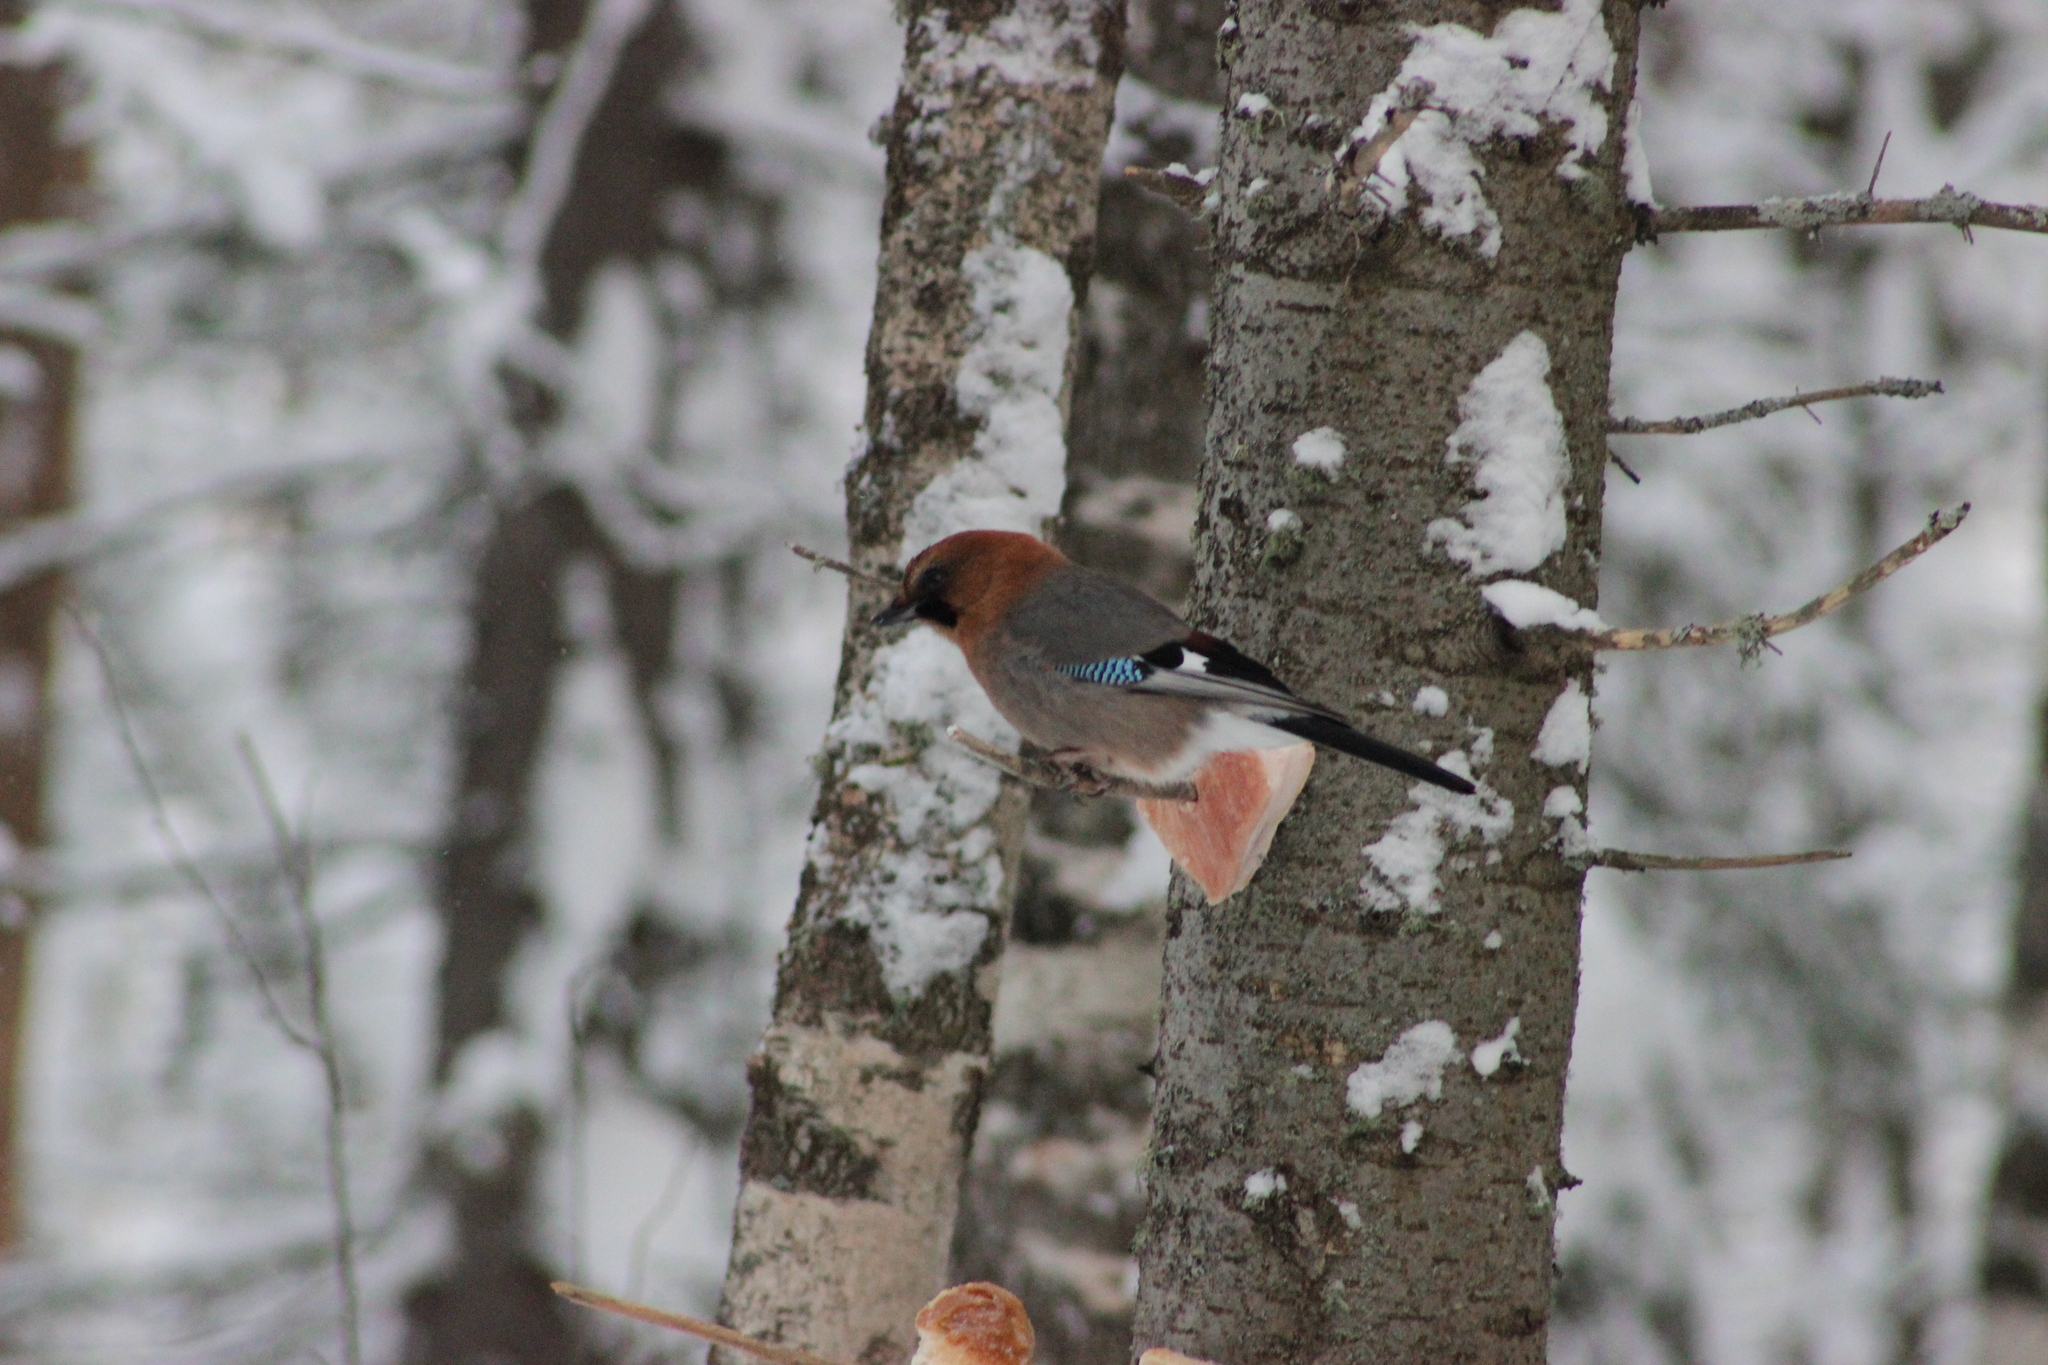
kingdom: Animalia
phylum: Chordata
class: Aves
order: Passeriformes
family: Corvidae
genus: Garrulus
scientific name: Garrulus glandarius
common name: Eurasian jay
